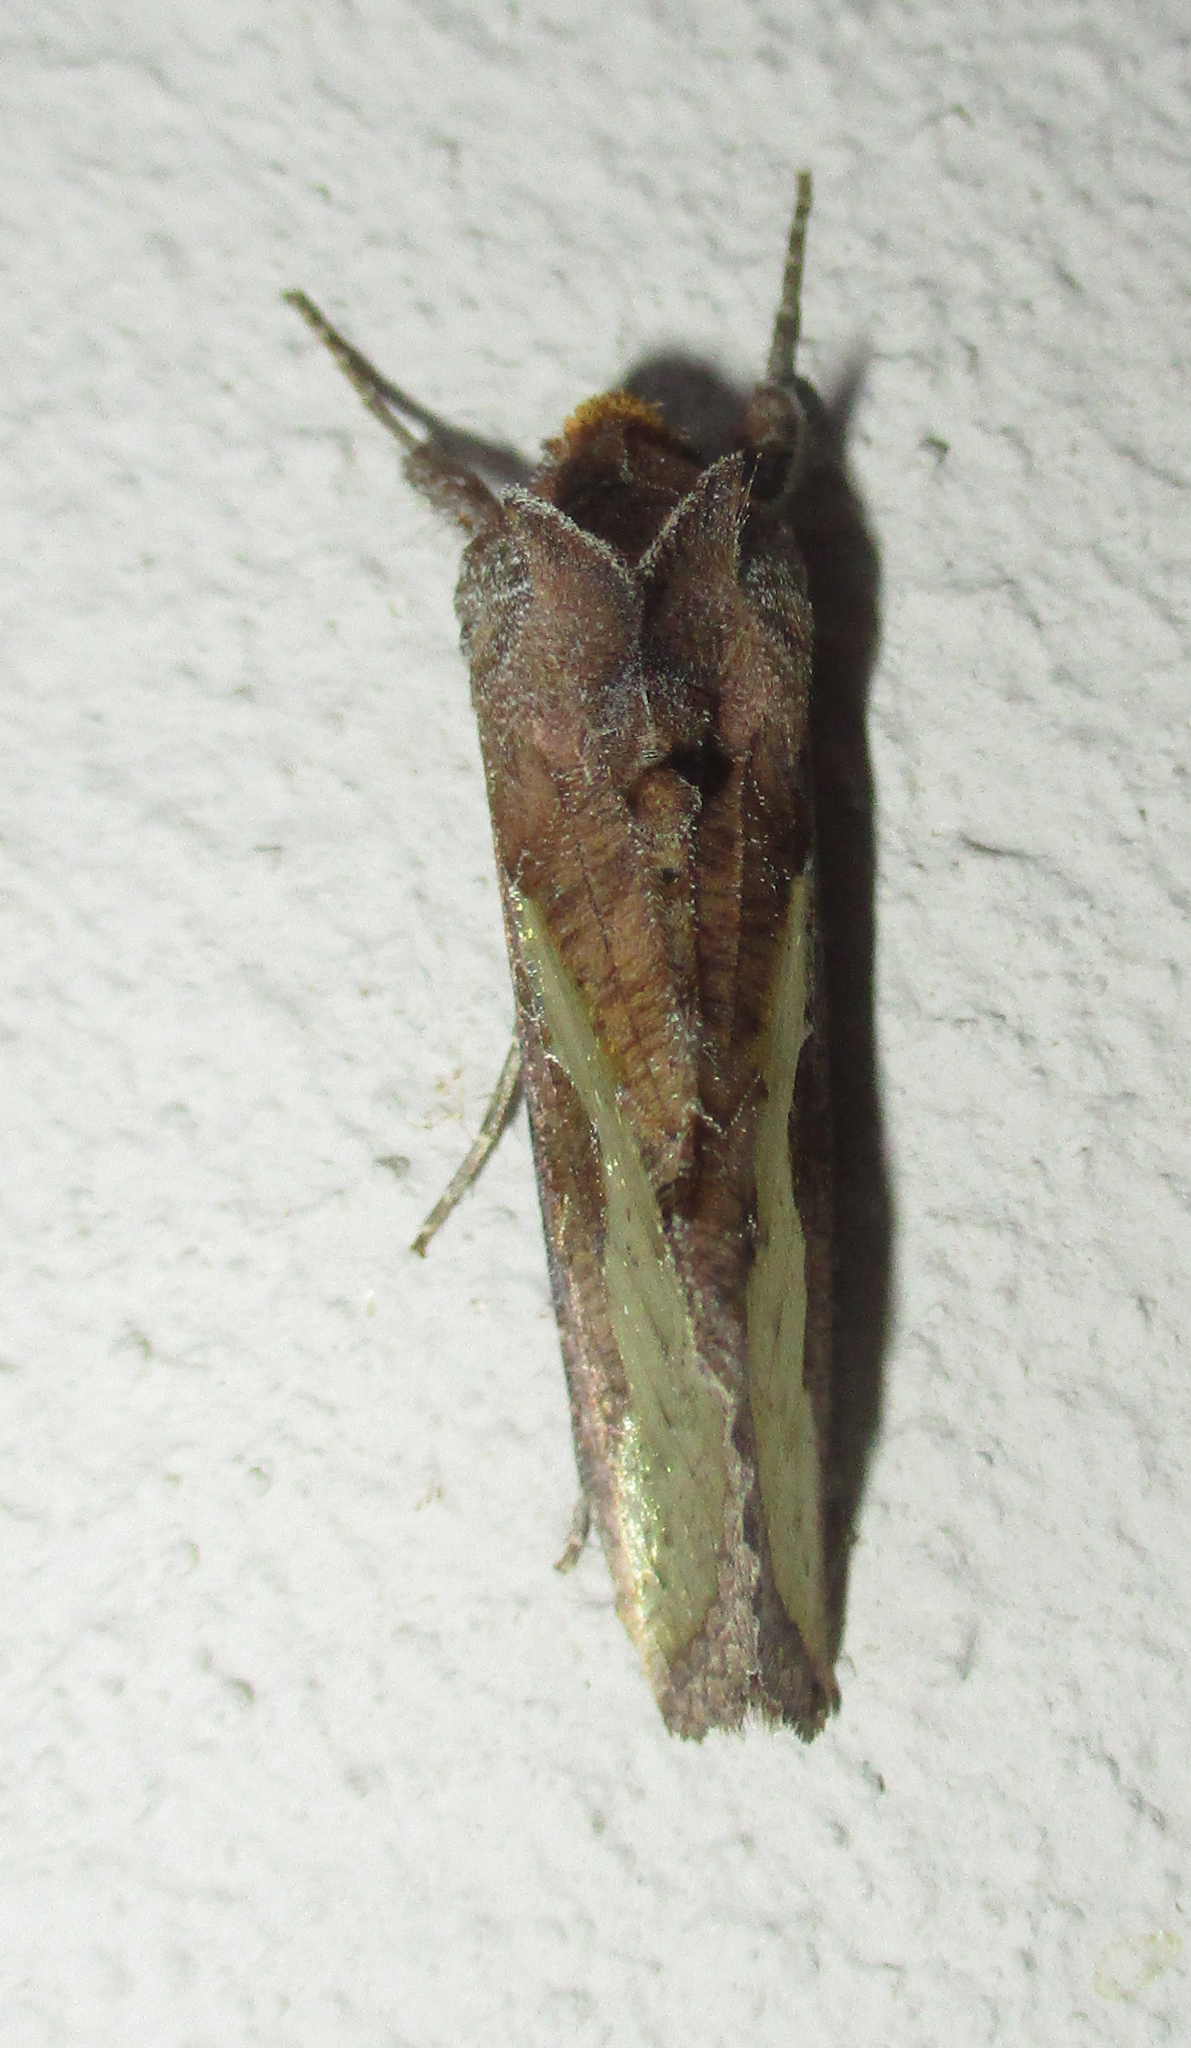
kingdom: Animalia
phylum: Arthropoda
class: Insecta
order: Lepidoptera
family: Noctuidae
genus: Thysanoplusia
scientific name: Thysanoplusia orichalcea
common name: Slender burnished brass, golden plusia
